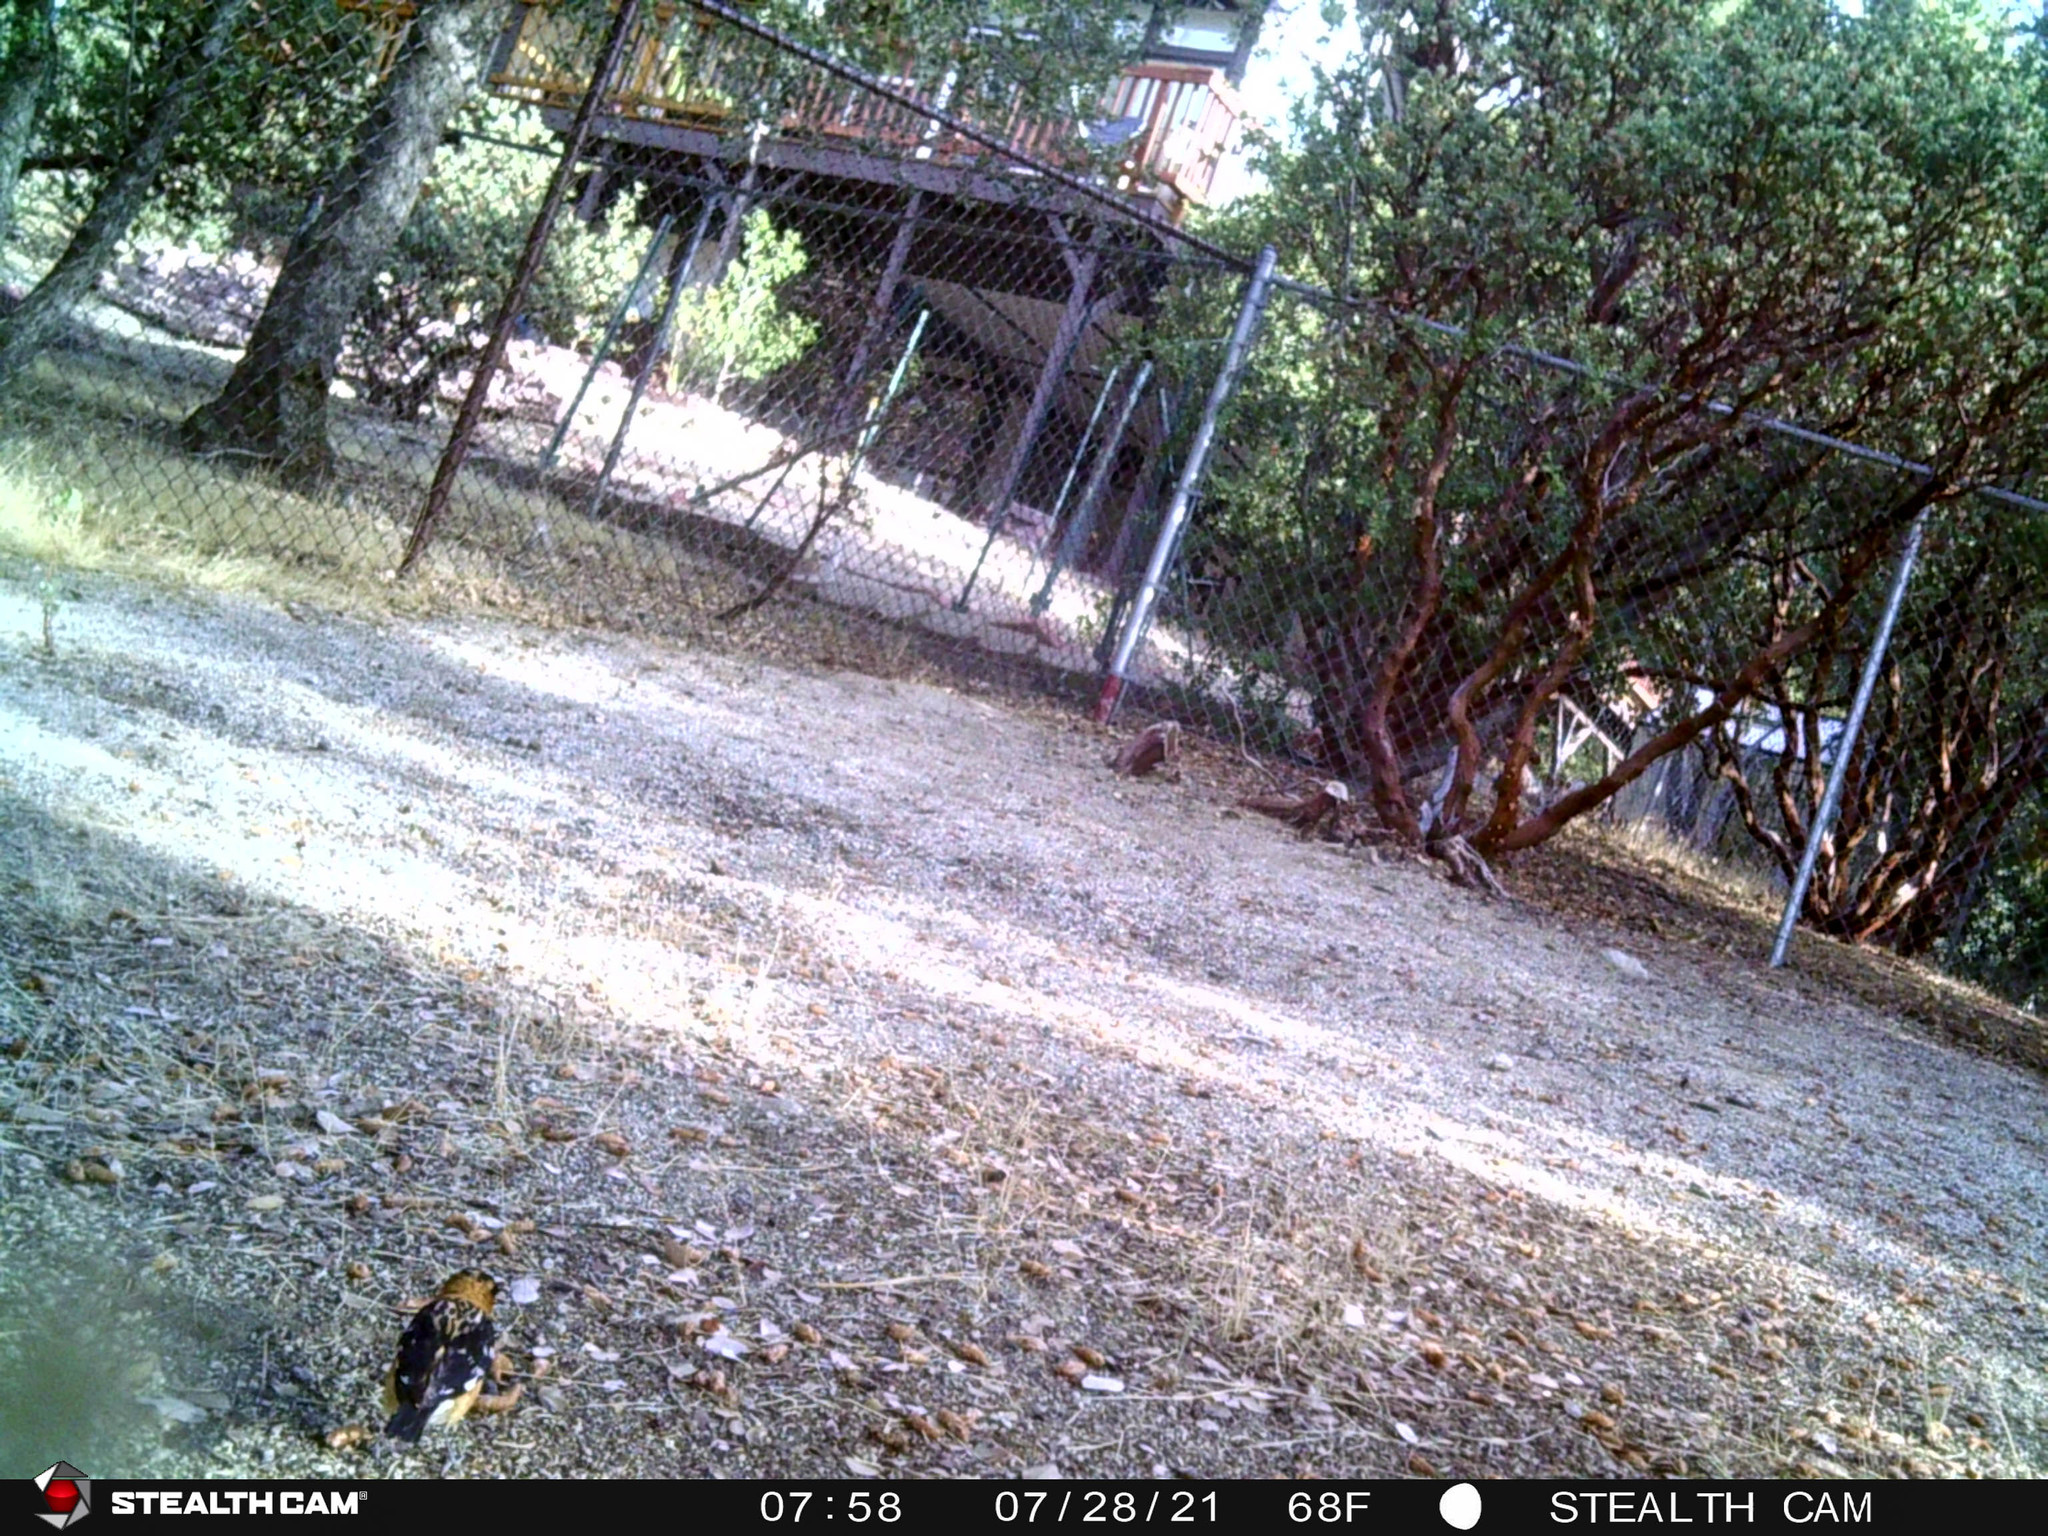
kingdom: Animalia
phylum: Chordata
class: Aves
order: Passeriformes
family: Cardinalidae
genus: Pheucticus
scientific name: Pheucticus melanocephalus
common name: Black-headed grosbeak
